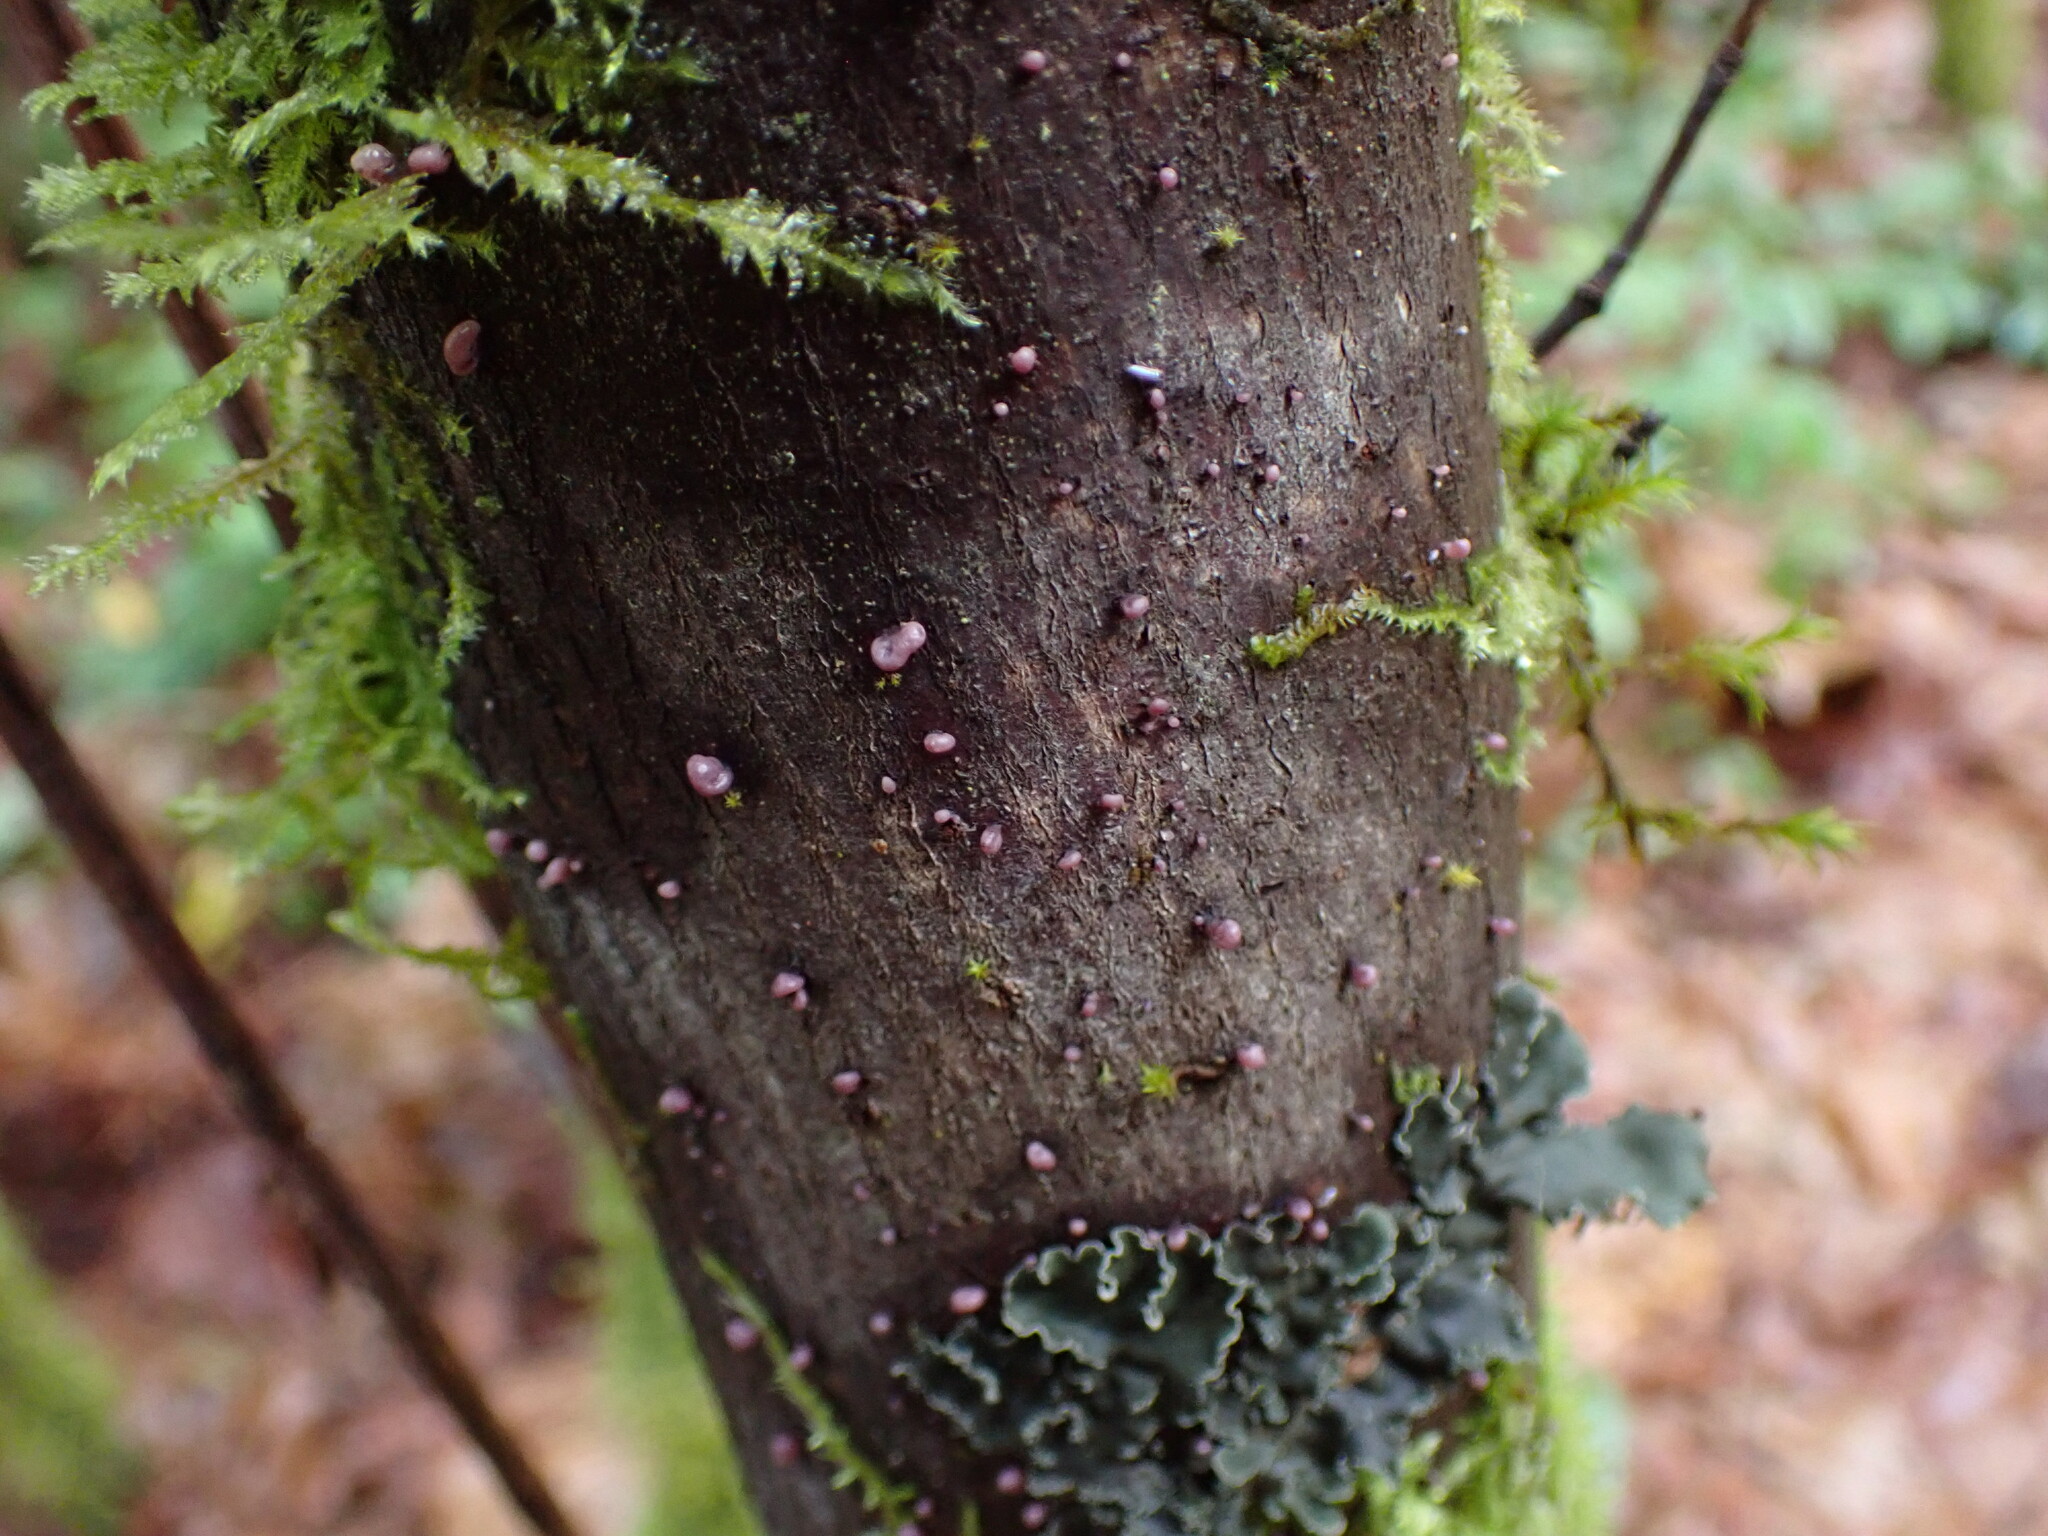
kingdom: Fungi
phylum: Ascomycota
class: Leotiomycetes
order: Helotiales
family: Gelatinodiscaceae
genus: Ascocoryne
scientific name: Ascocoryne sarcoides
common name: Purple jellydisc
